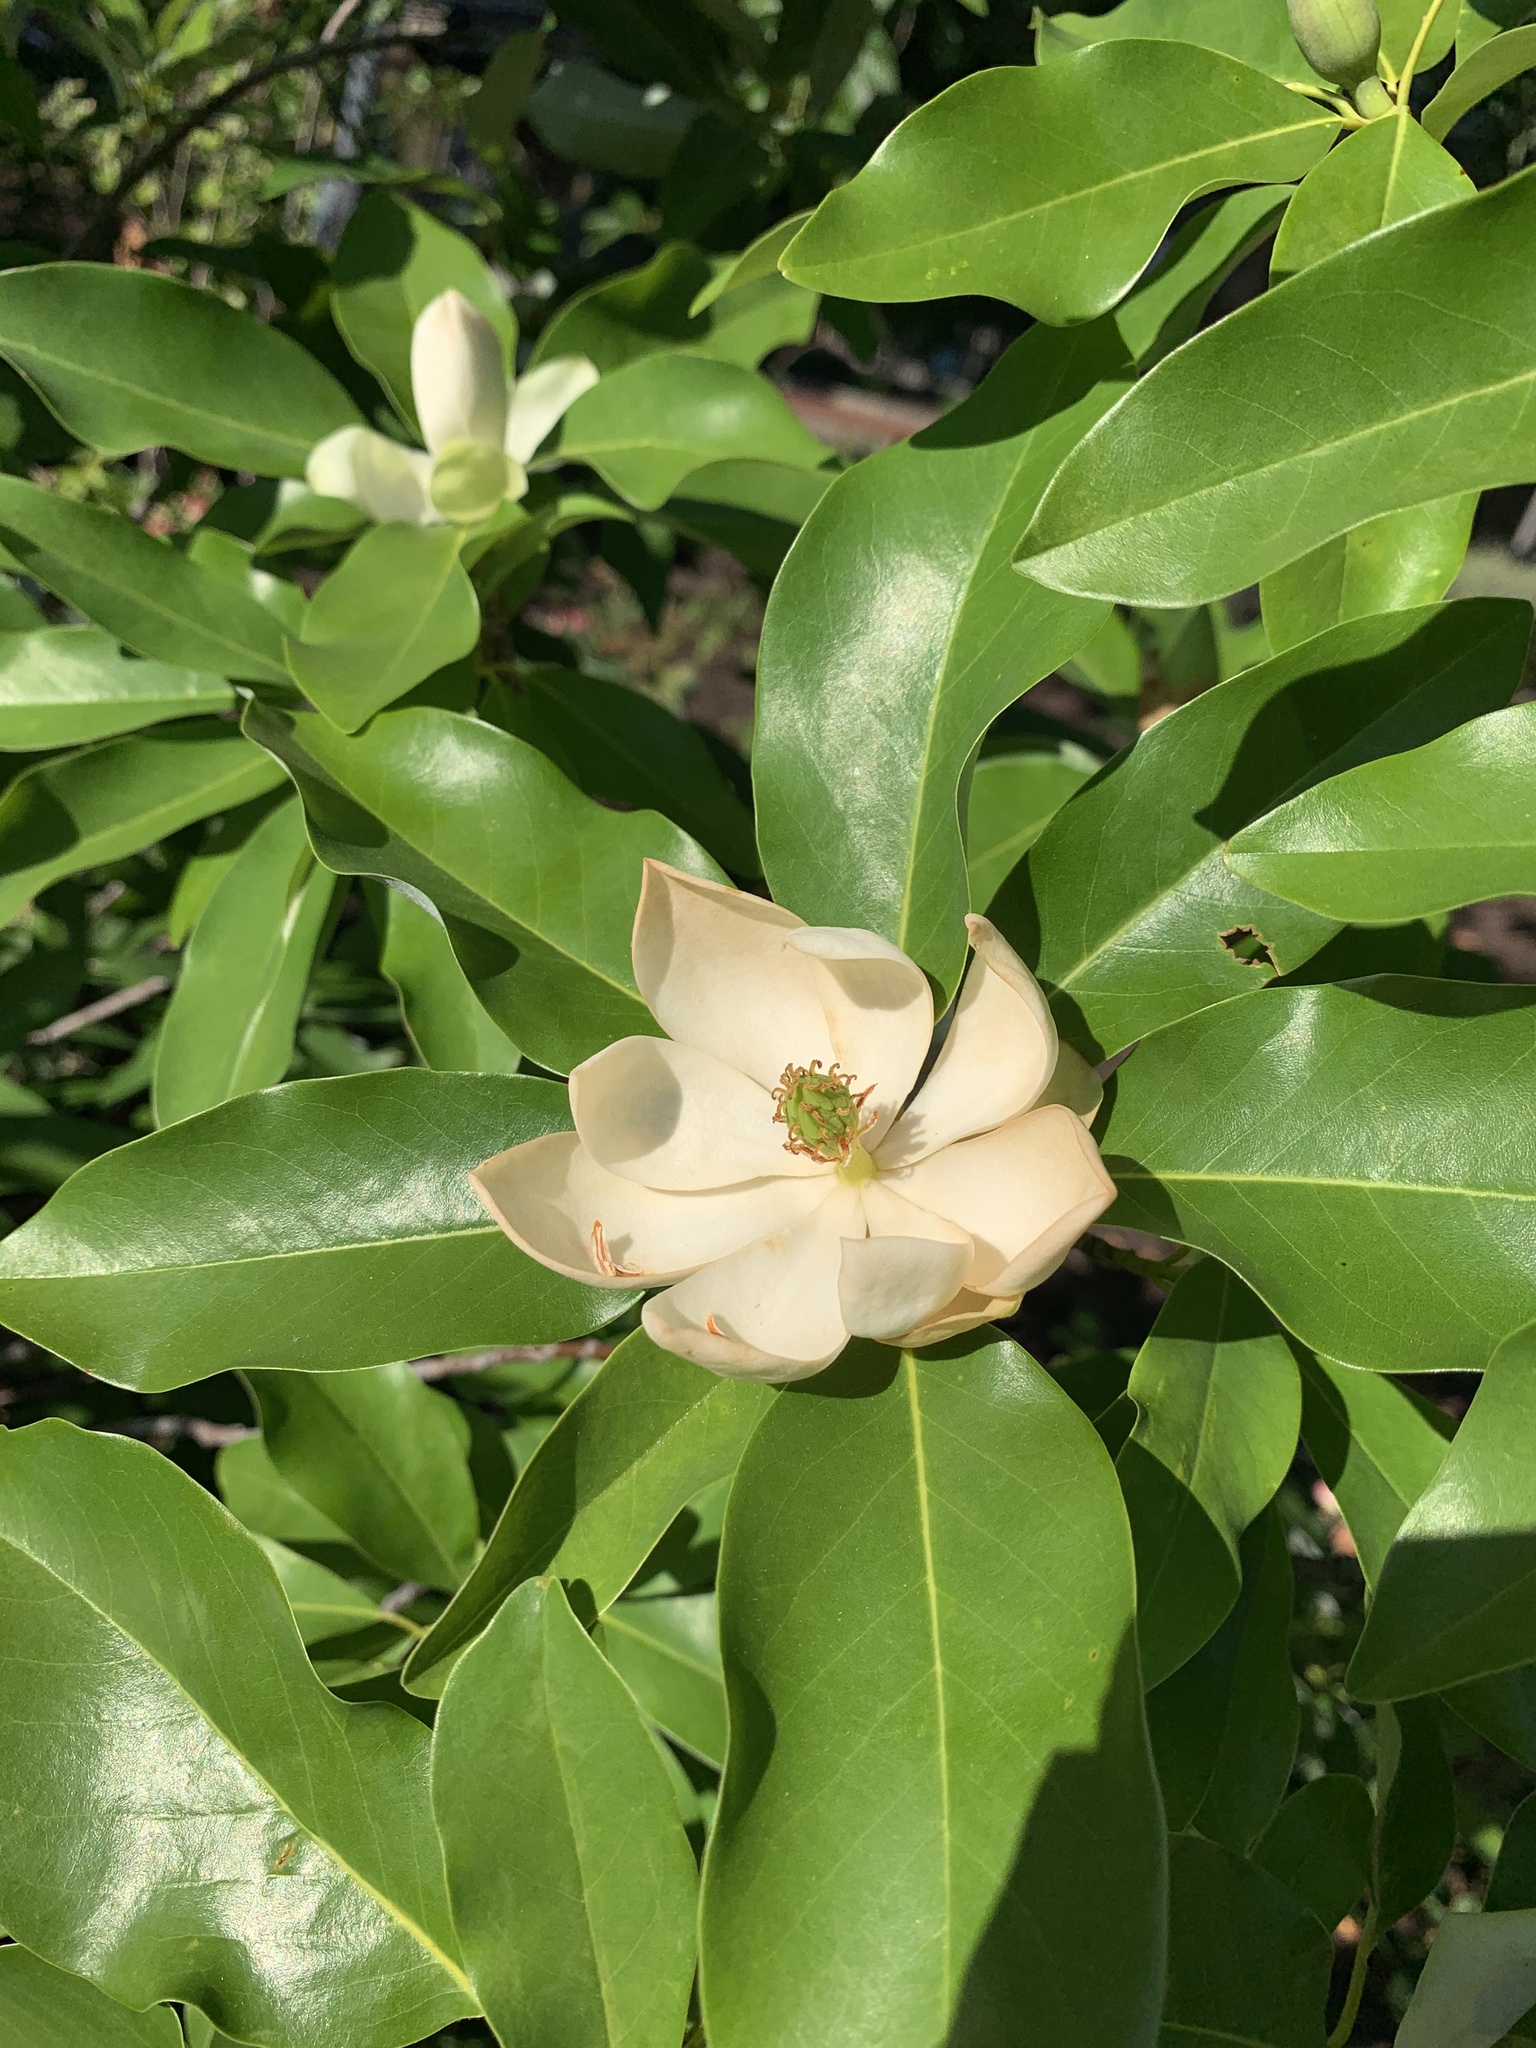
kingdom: Plantae
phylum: Tracheophyta
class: Magnoliopsida
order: Magnoliales
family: Magnoliaceae
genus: Magnolia
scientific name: Magnolia virginiana
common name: Swamp bay
